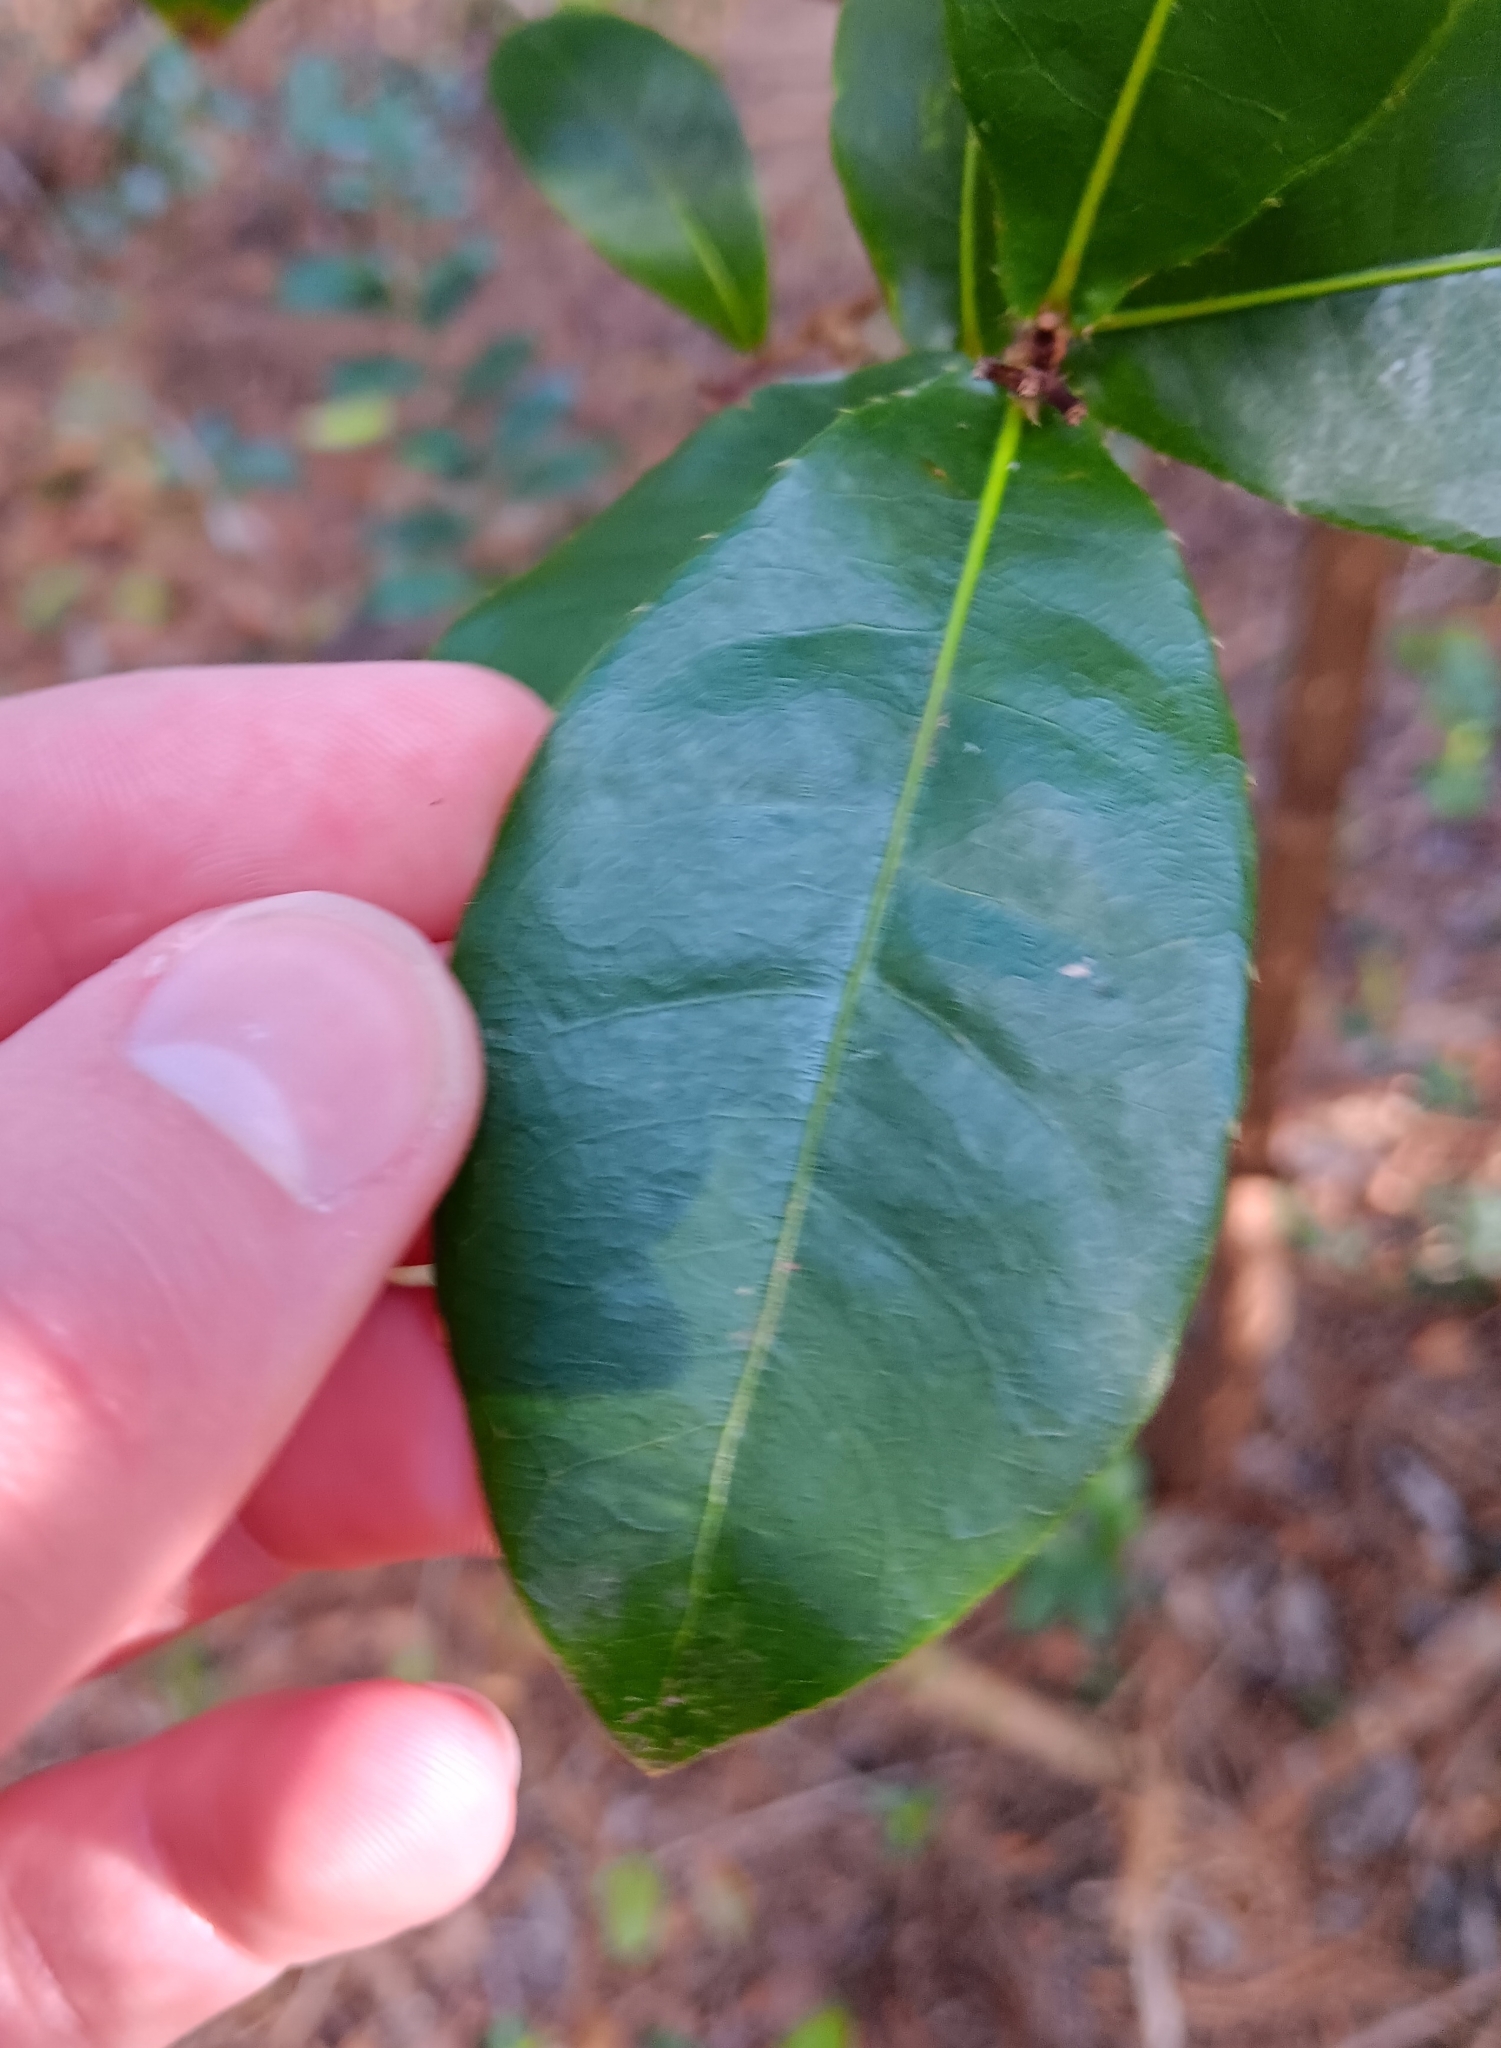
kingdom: Plantae
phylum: Tracheophyta
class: Magnoliopsida
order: Malpighiales
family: Ochnaceae
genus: Ochna
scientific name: Ochna thomasiana
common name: Thomas' bird's-eye bush
